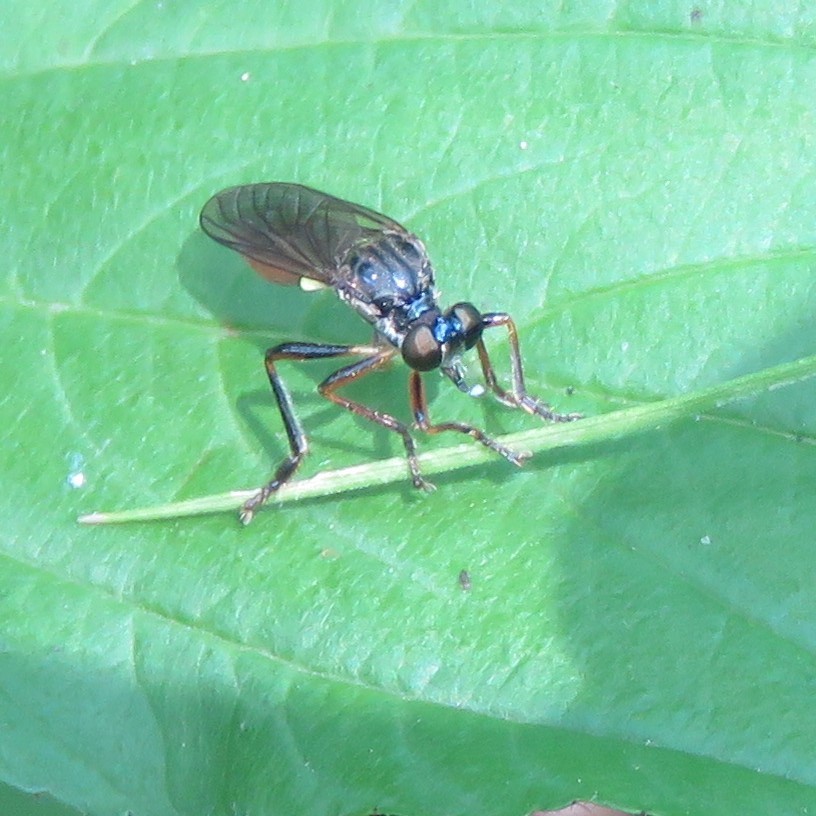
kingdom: Animalia
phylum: Arthropoda
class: Insecta
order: Diptera
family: Asilidae
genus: Dioctria
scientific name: Dioctria hyalipennis
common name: Stripe-legged robberfly
